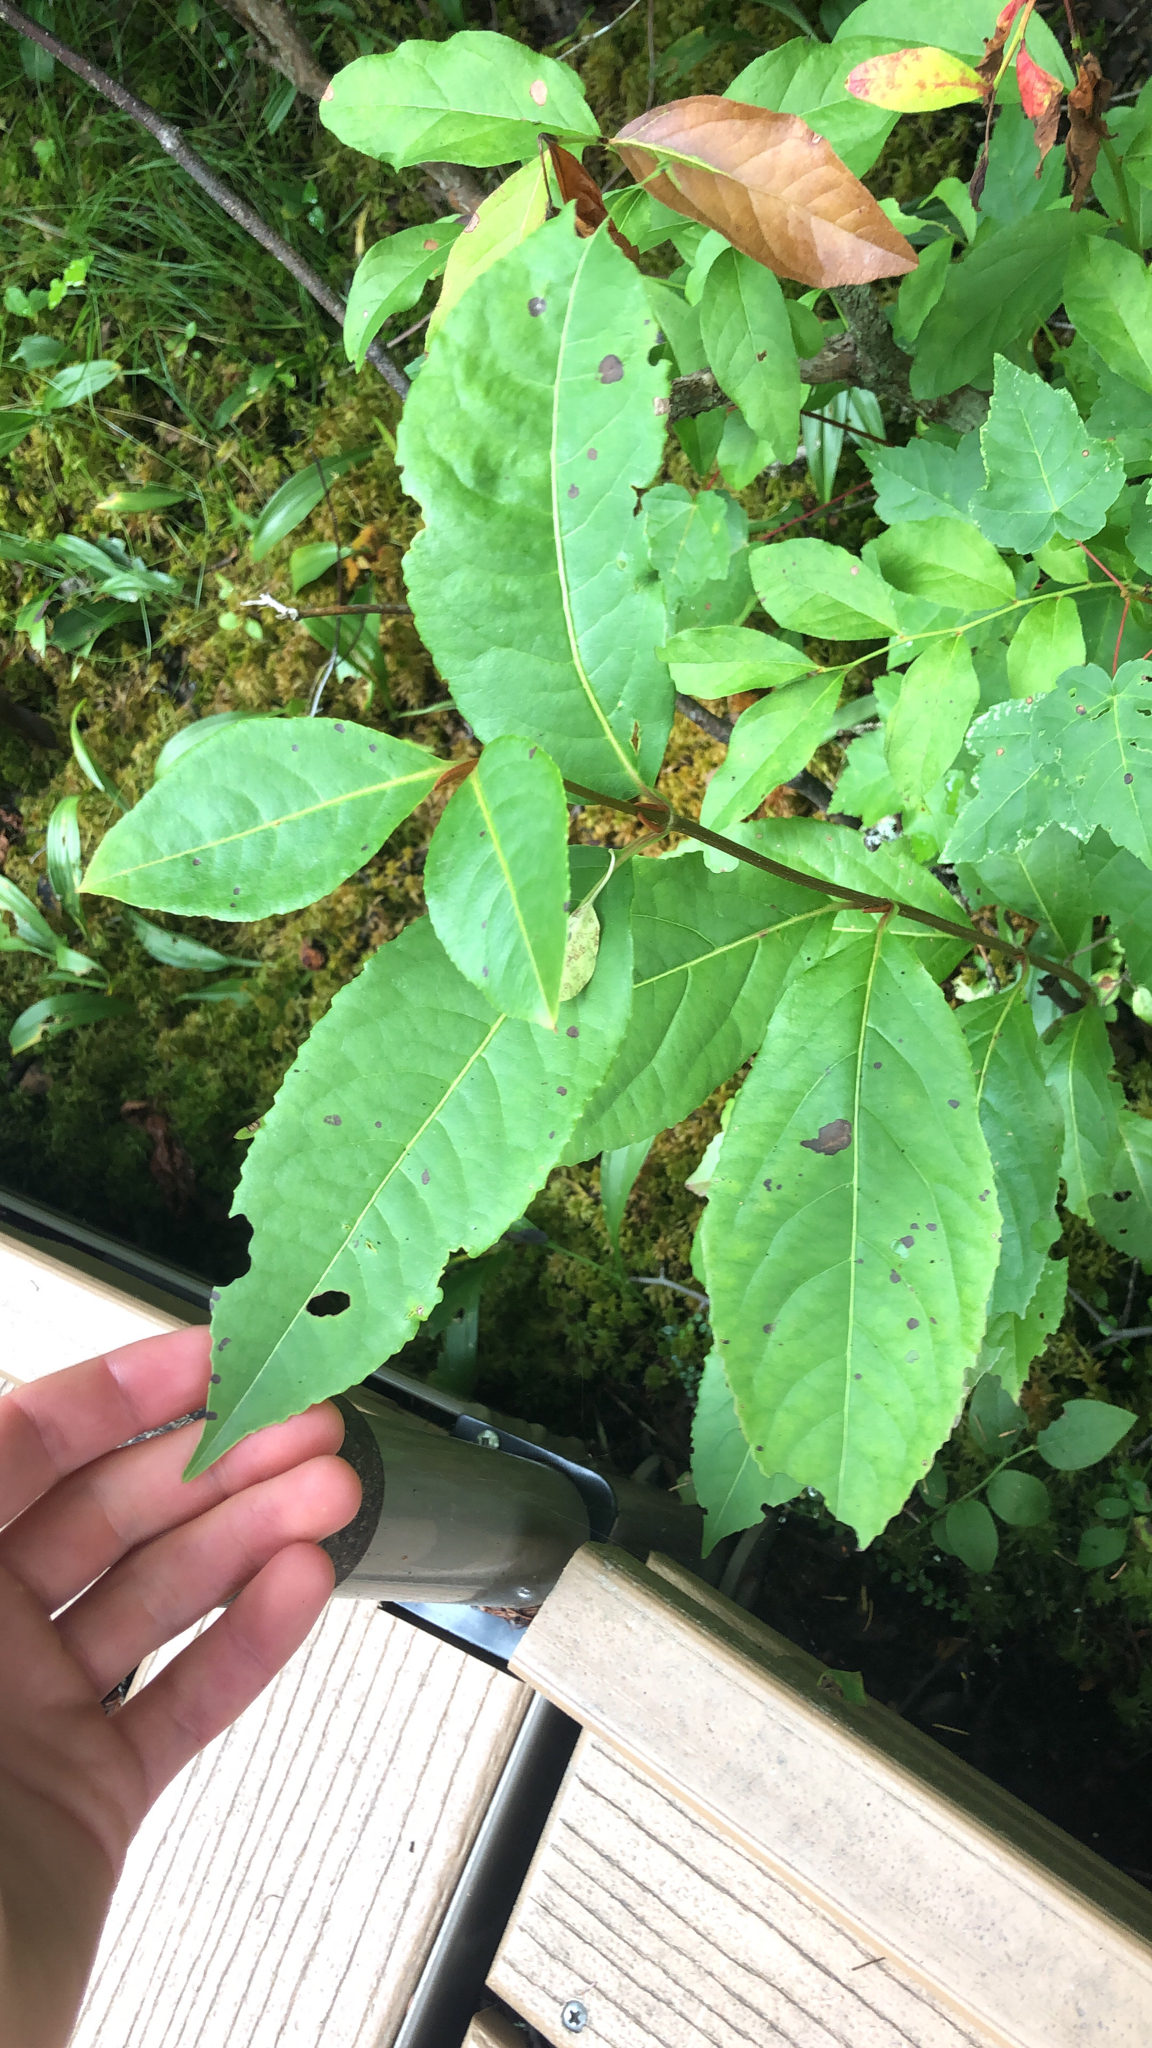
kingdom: Plantae
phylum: Tracheophyta
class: Magnoliopsida
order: Dipsacales
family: Viburnaceae
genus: Viburnum
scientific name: Viburnum cassinoides
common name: Swamp haw
